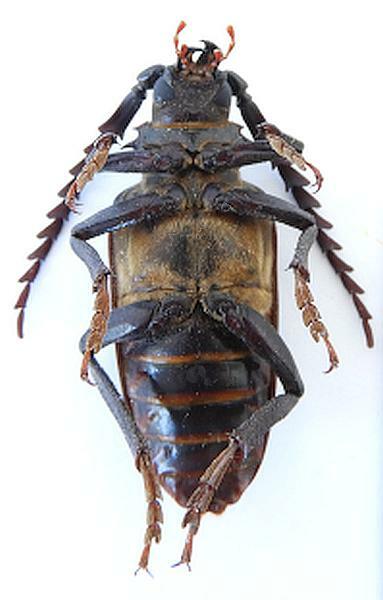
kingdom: Animalia
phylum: Arthropoda
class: Insecta
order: Coleoptera
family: Cerambycidae
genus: Prionus
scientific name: Prionus heroicus
